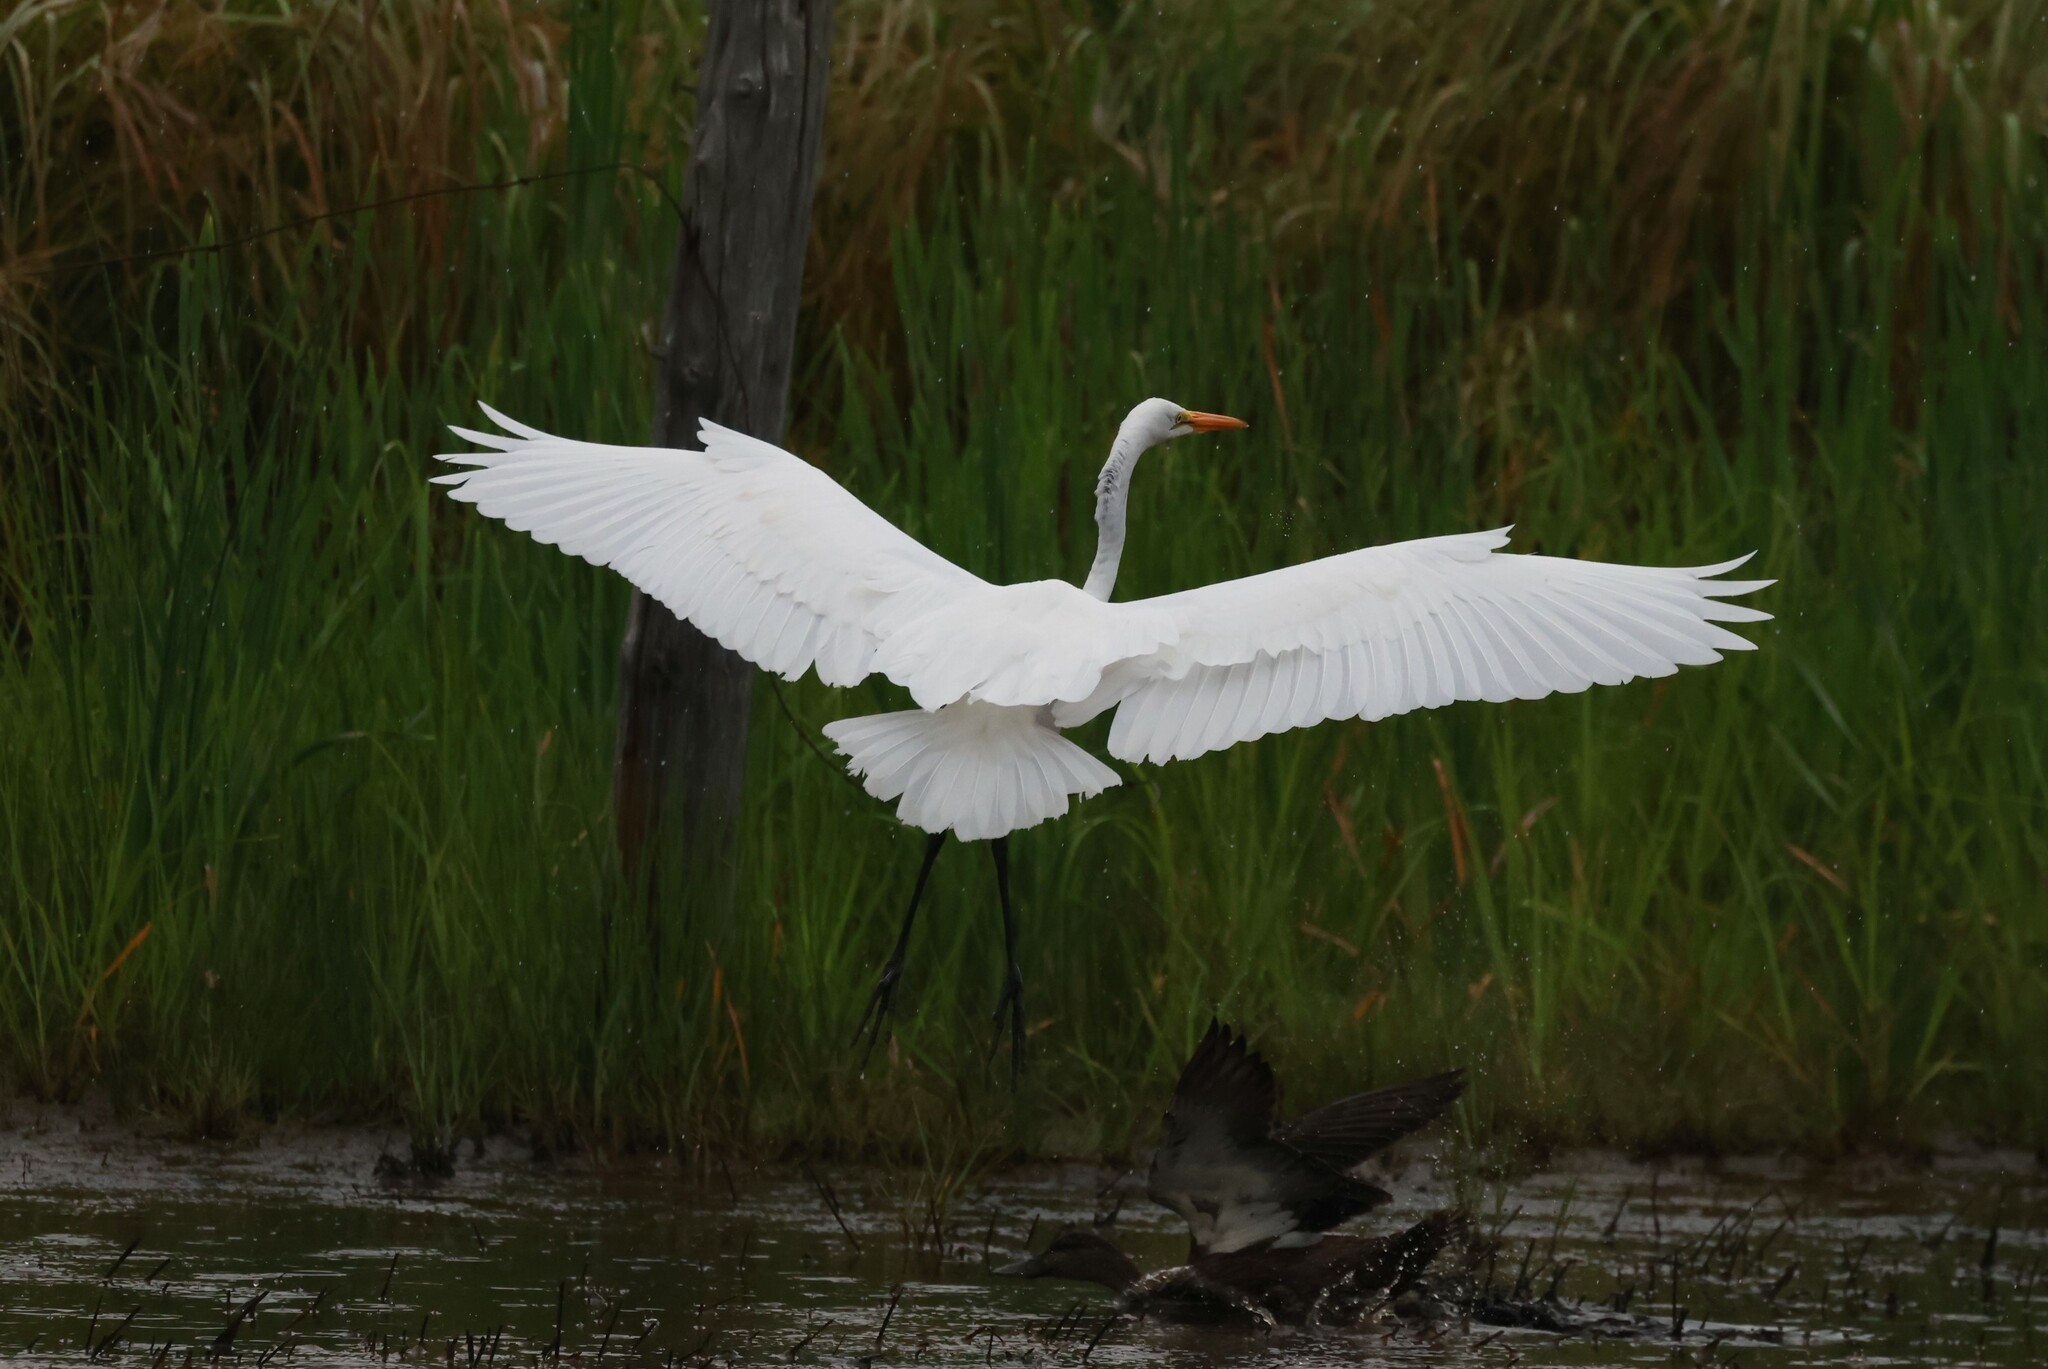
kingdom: Animalia
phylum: Chordata
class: Aves
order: Pelecaniformes
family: Ardeidae
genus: Ardea
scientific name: Ardea alba
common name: Great egret
